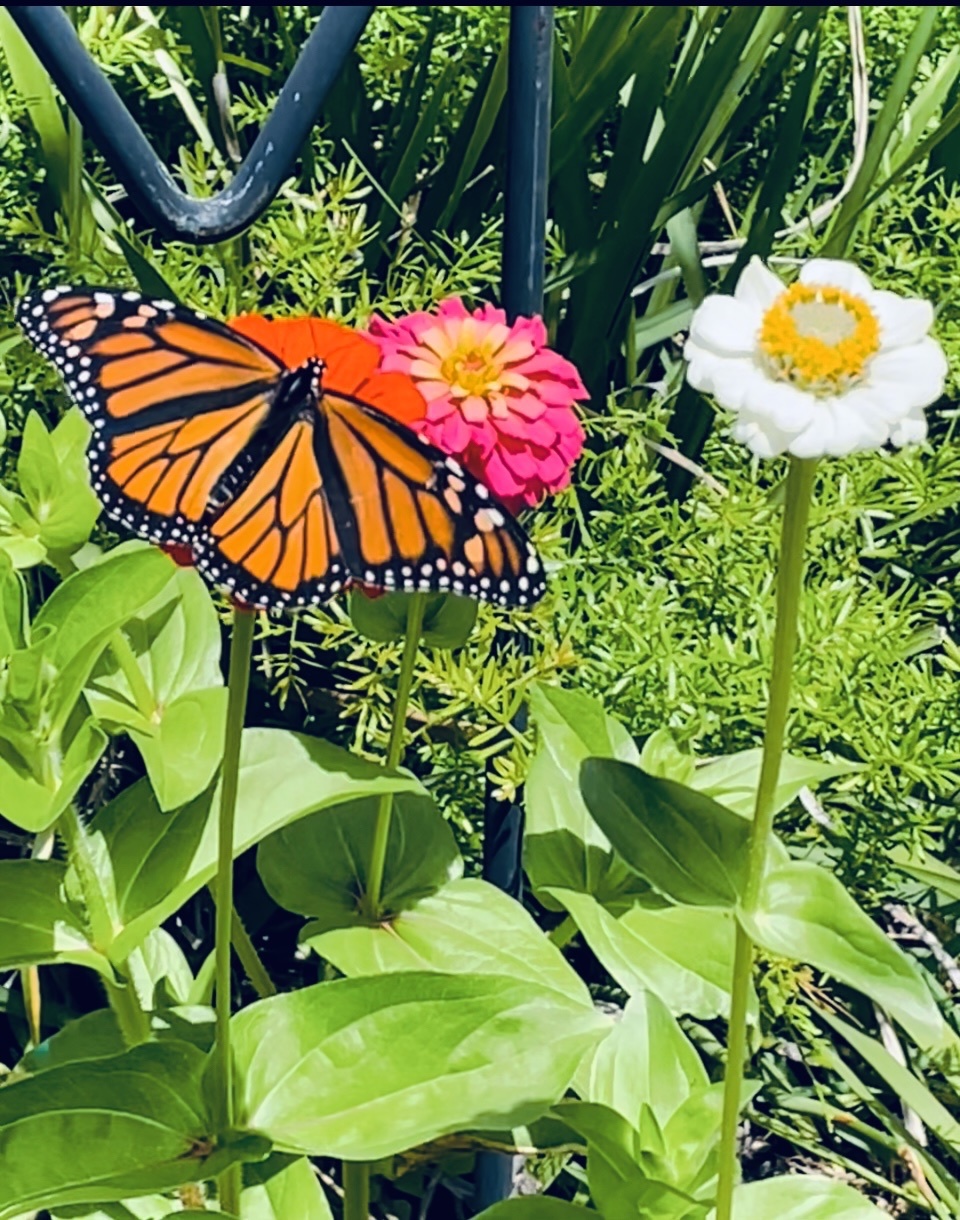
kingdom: Animalia
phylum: Arthropoda
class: Insecta
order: Lepidoptera
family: Nymphalidae
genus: Danaus
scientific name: Danaus plexippus
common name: Monarch
